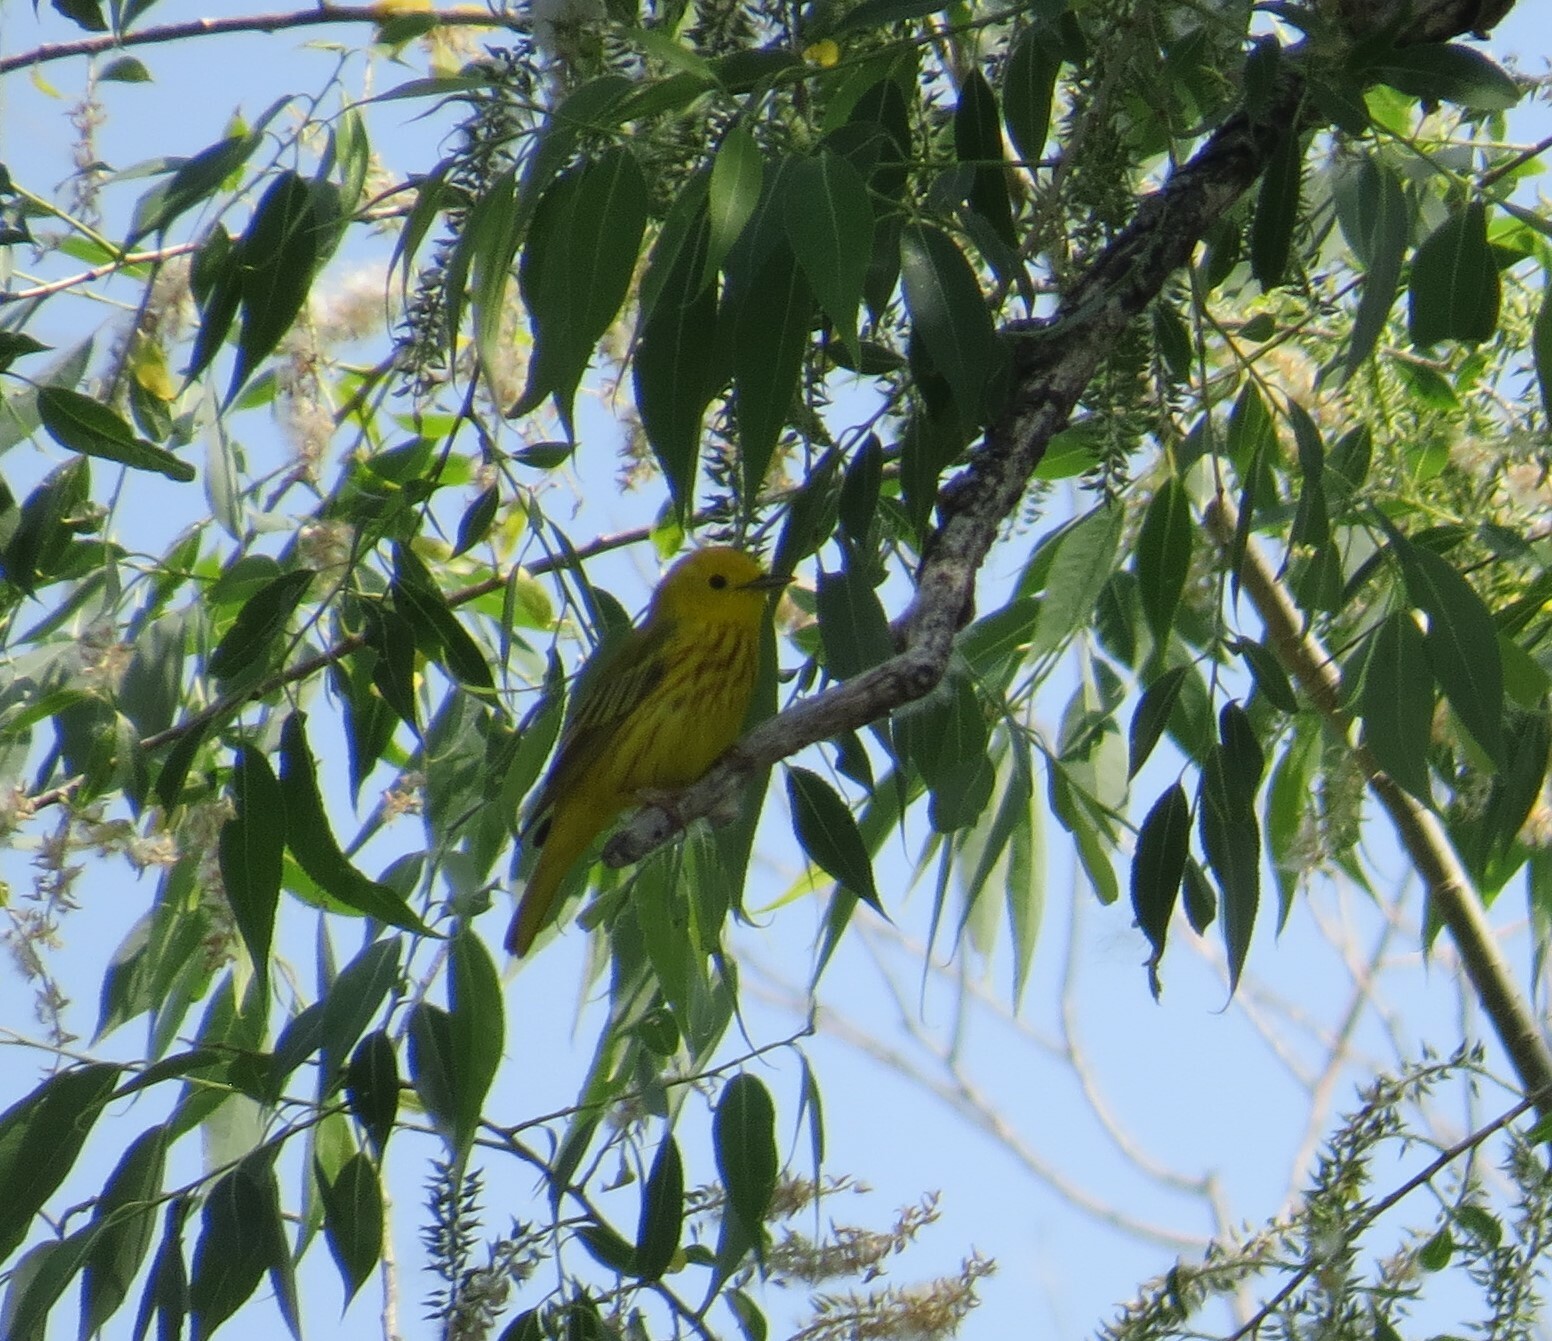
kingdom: Animalia
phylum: Chordata
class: Aves
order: Passeriformes
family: Parulidae
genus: Setophaga
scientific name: Setophaga petechia
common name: Yellow warbler
